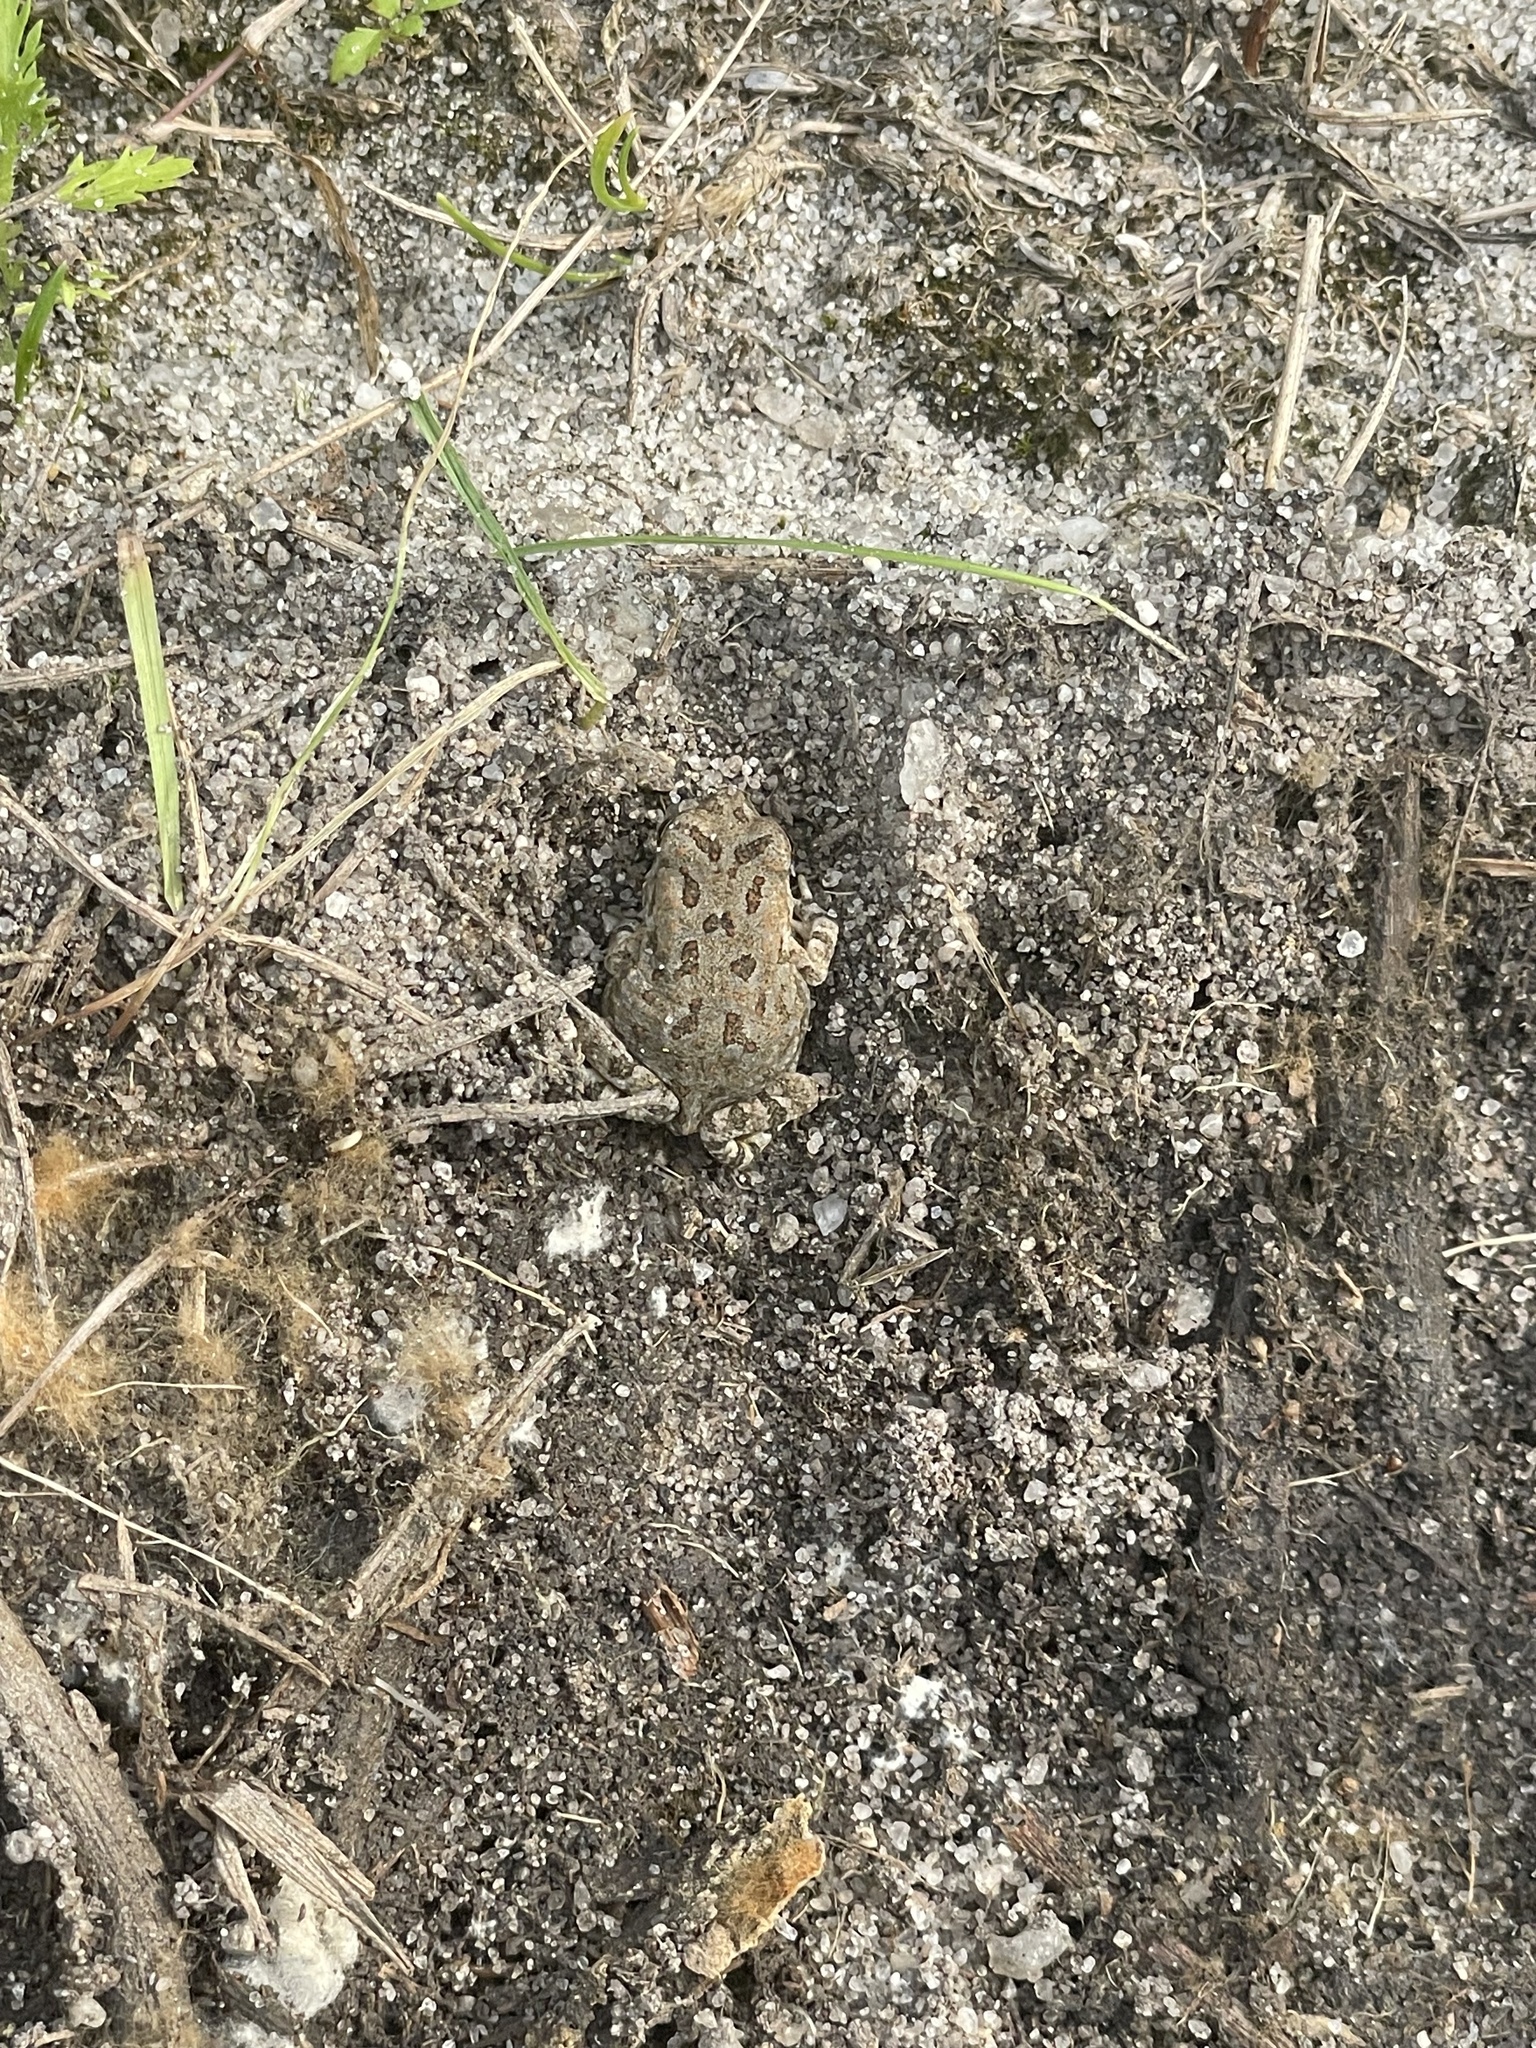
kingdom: Animalia
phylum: Chordata
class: Amphibia
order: Anura
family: Bufonidae
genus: Anaxyrus
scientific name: Anaxyrus fowleri
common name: Fowler's toad
